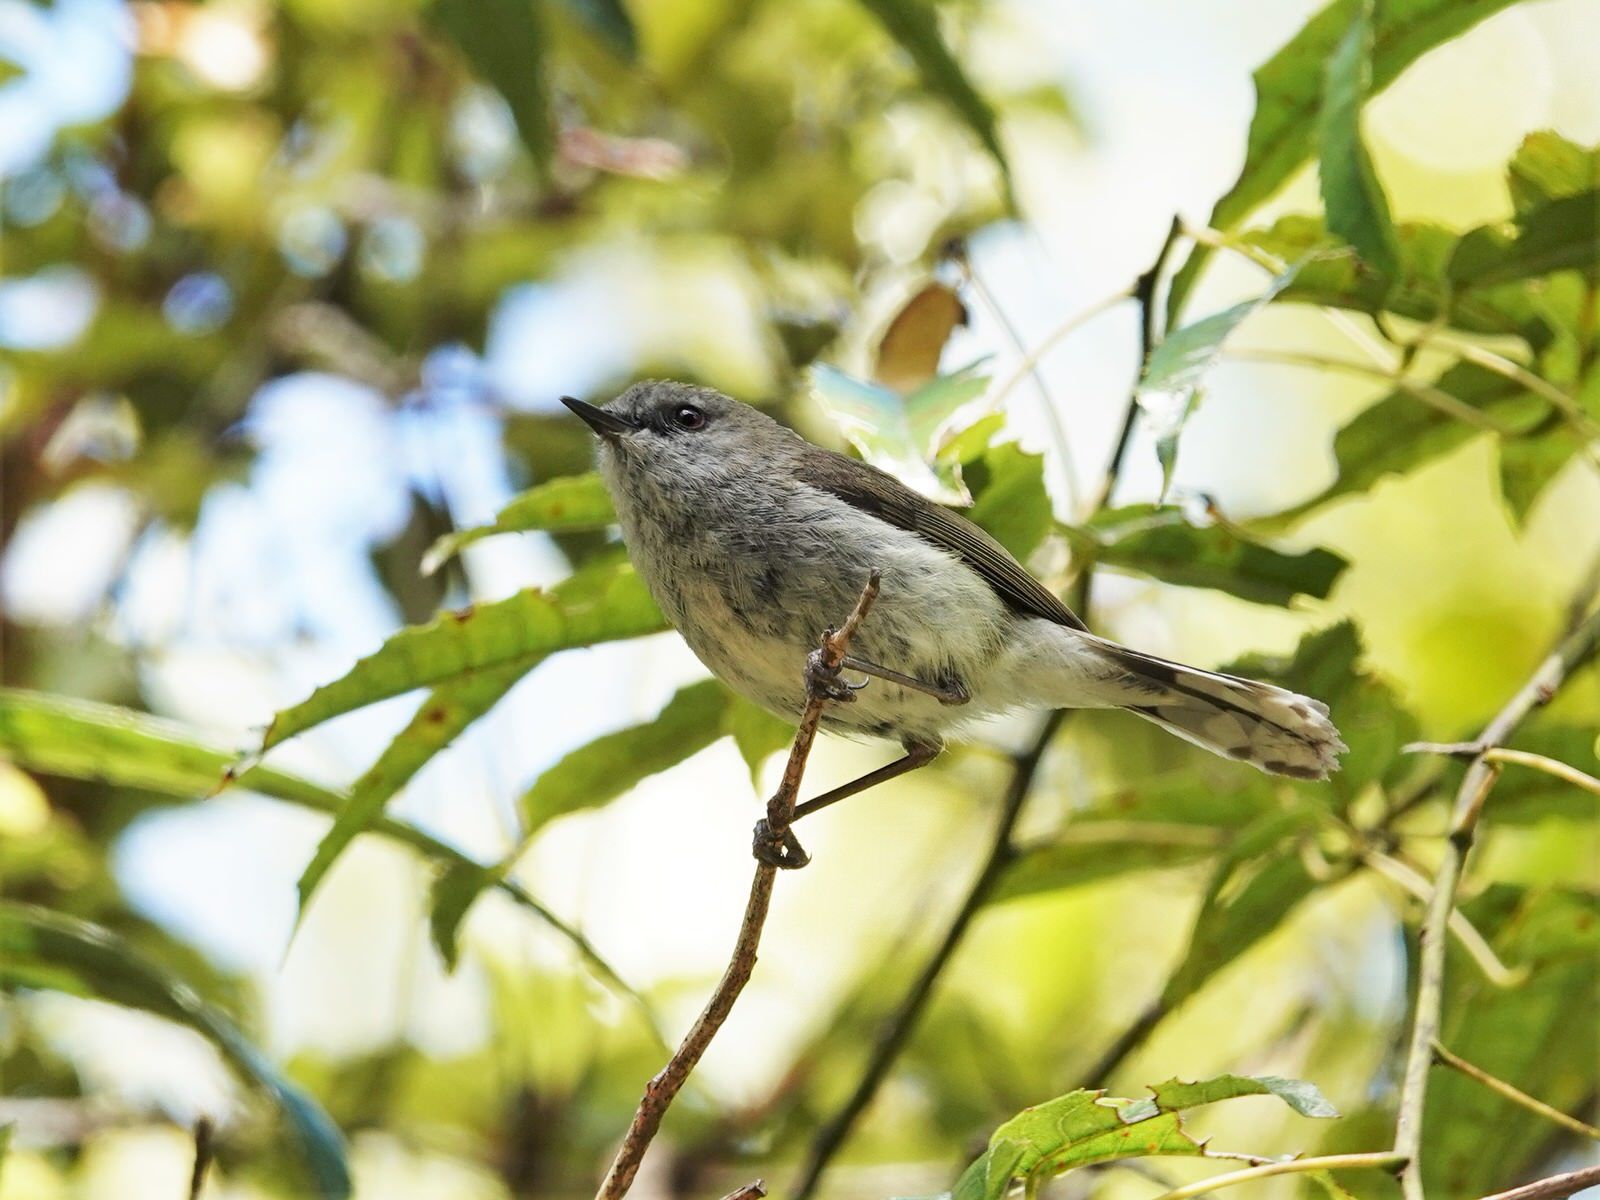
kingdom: Animalia
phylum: Chordata
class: Aves
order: Passeriformes
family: Acanthizidae
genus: Gerygone
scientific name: Gerygone igata
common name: Grey gerygone
